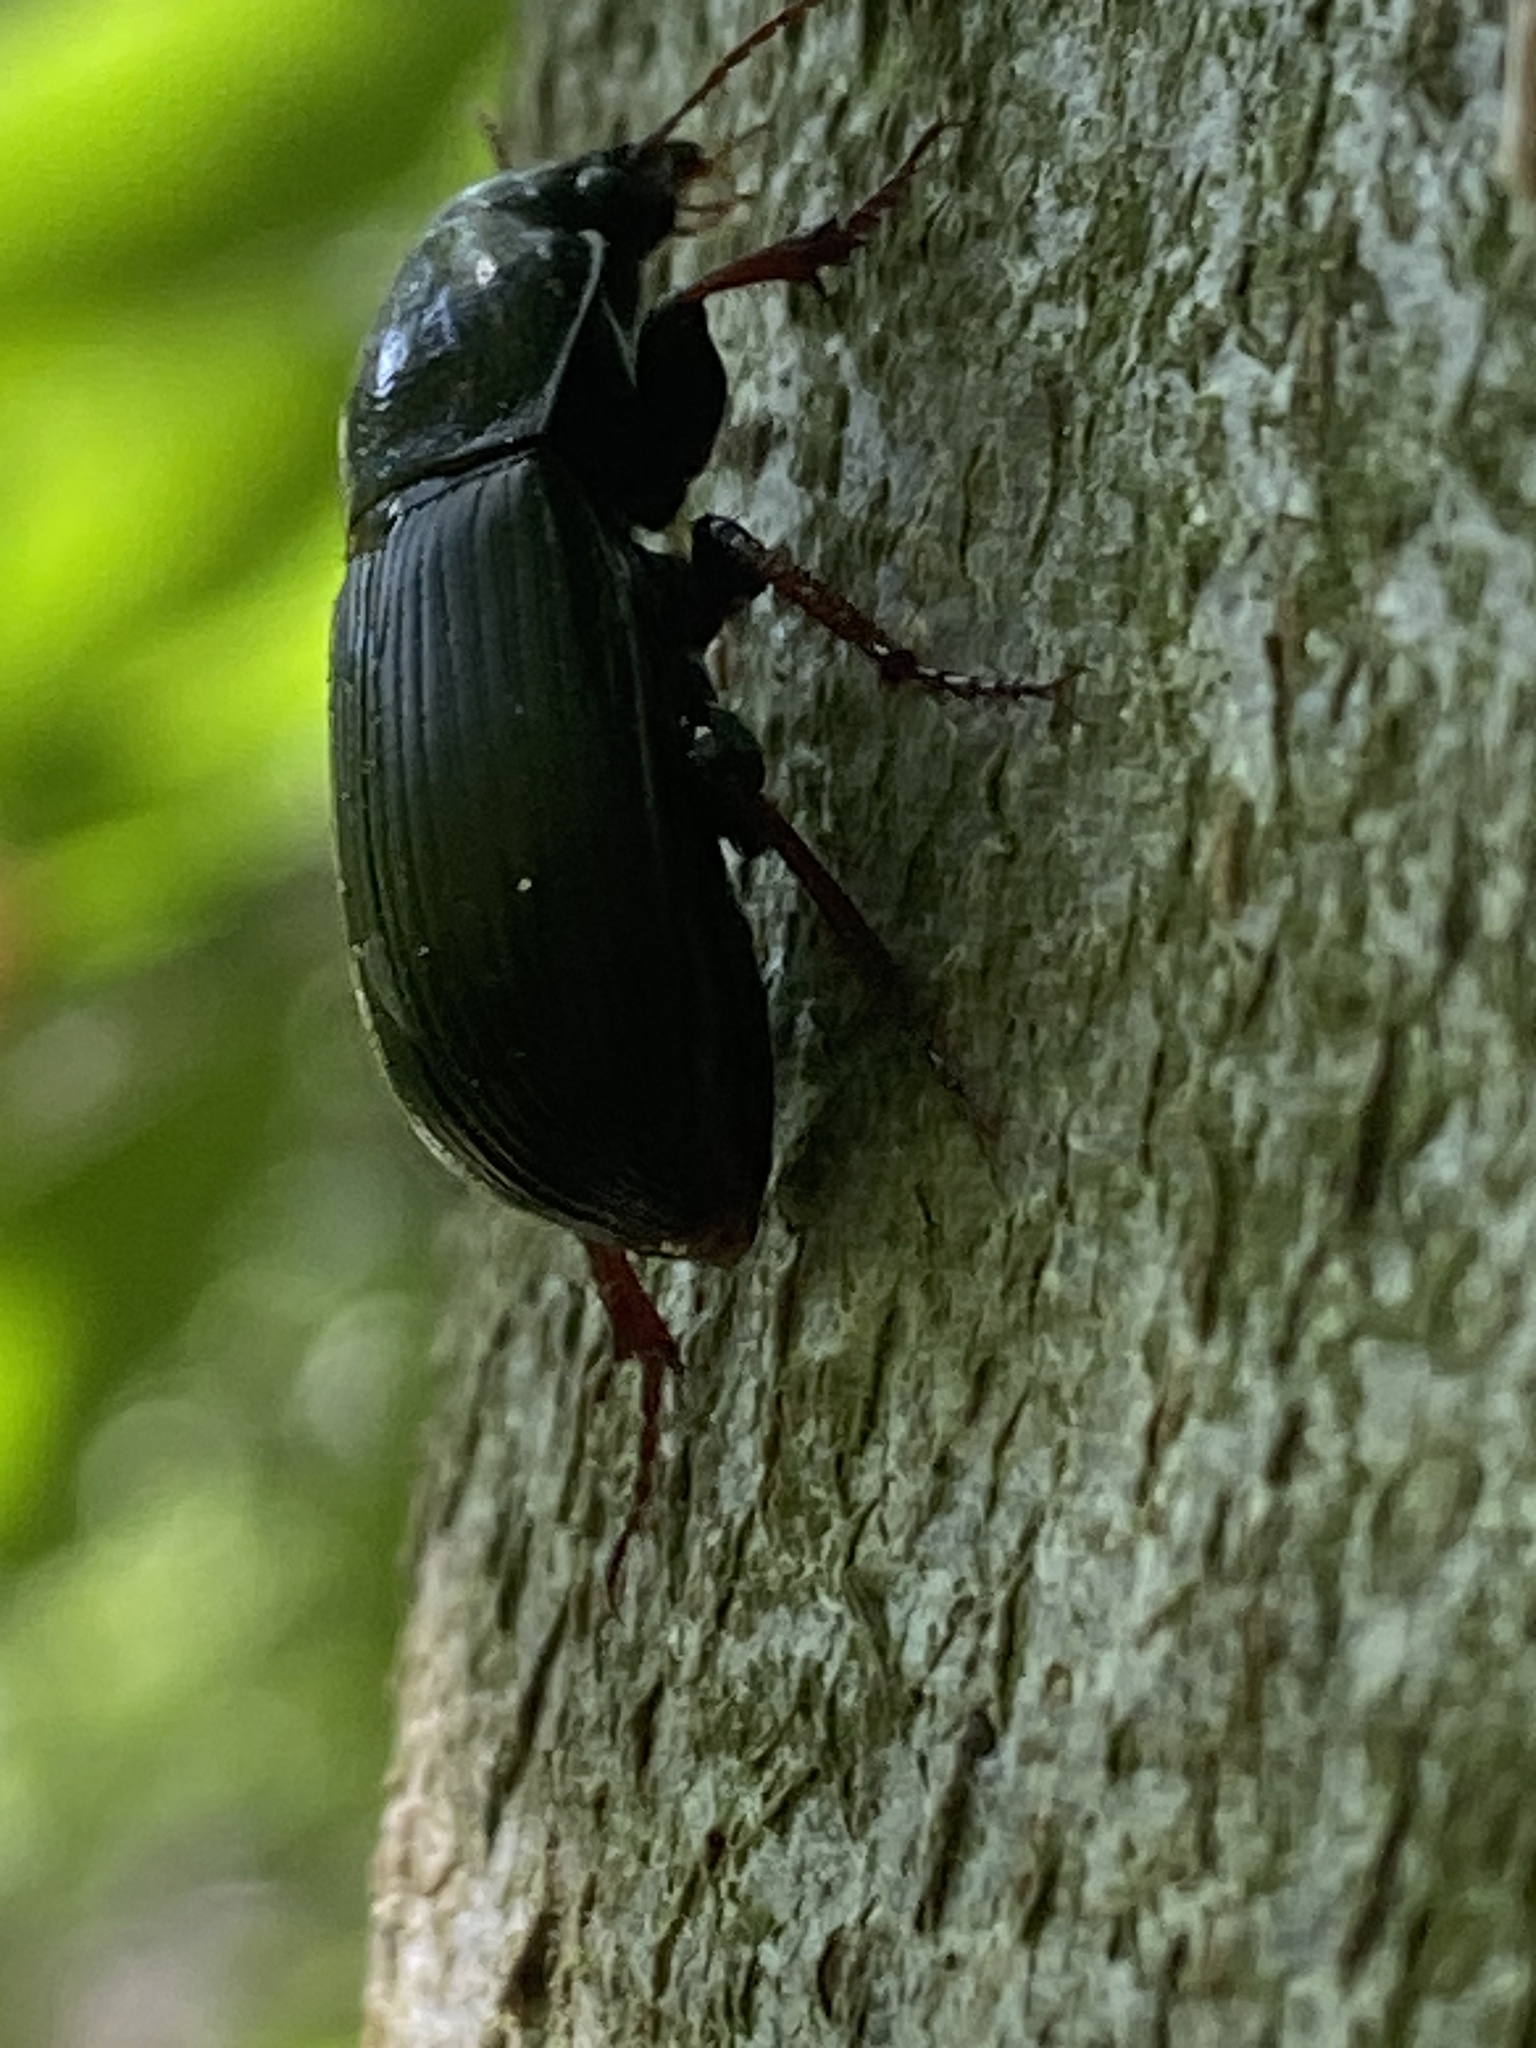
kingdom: Animalia
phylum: Arthropoda
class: Insecta
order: Coleoptera
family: Carabidae
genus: Zabrus
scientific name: Zabrus tenebrioides
